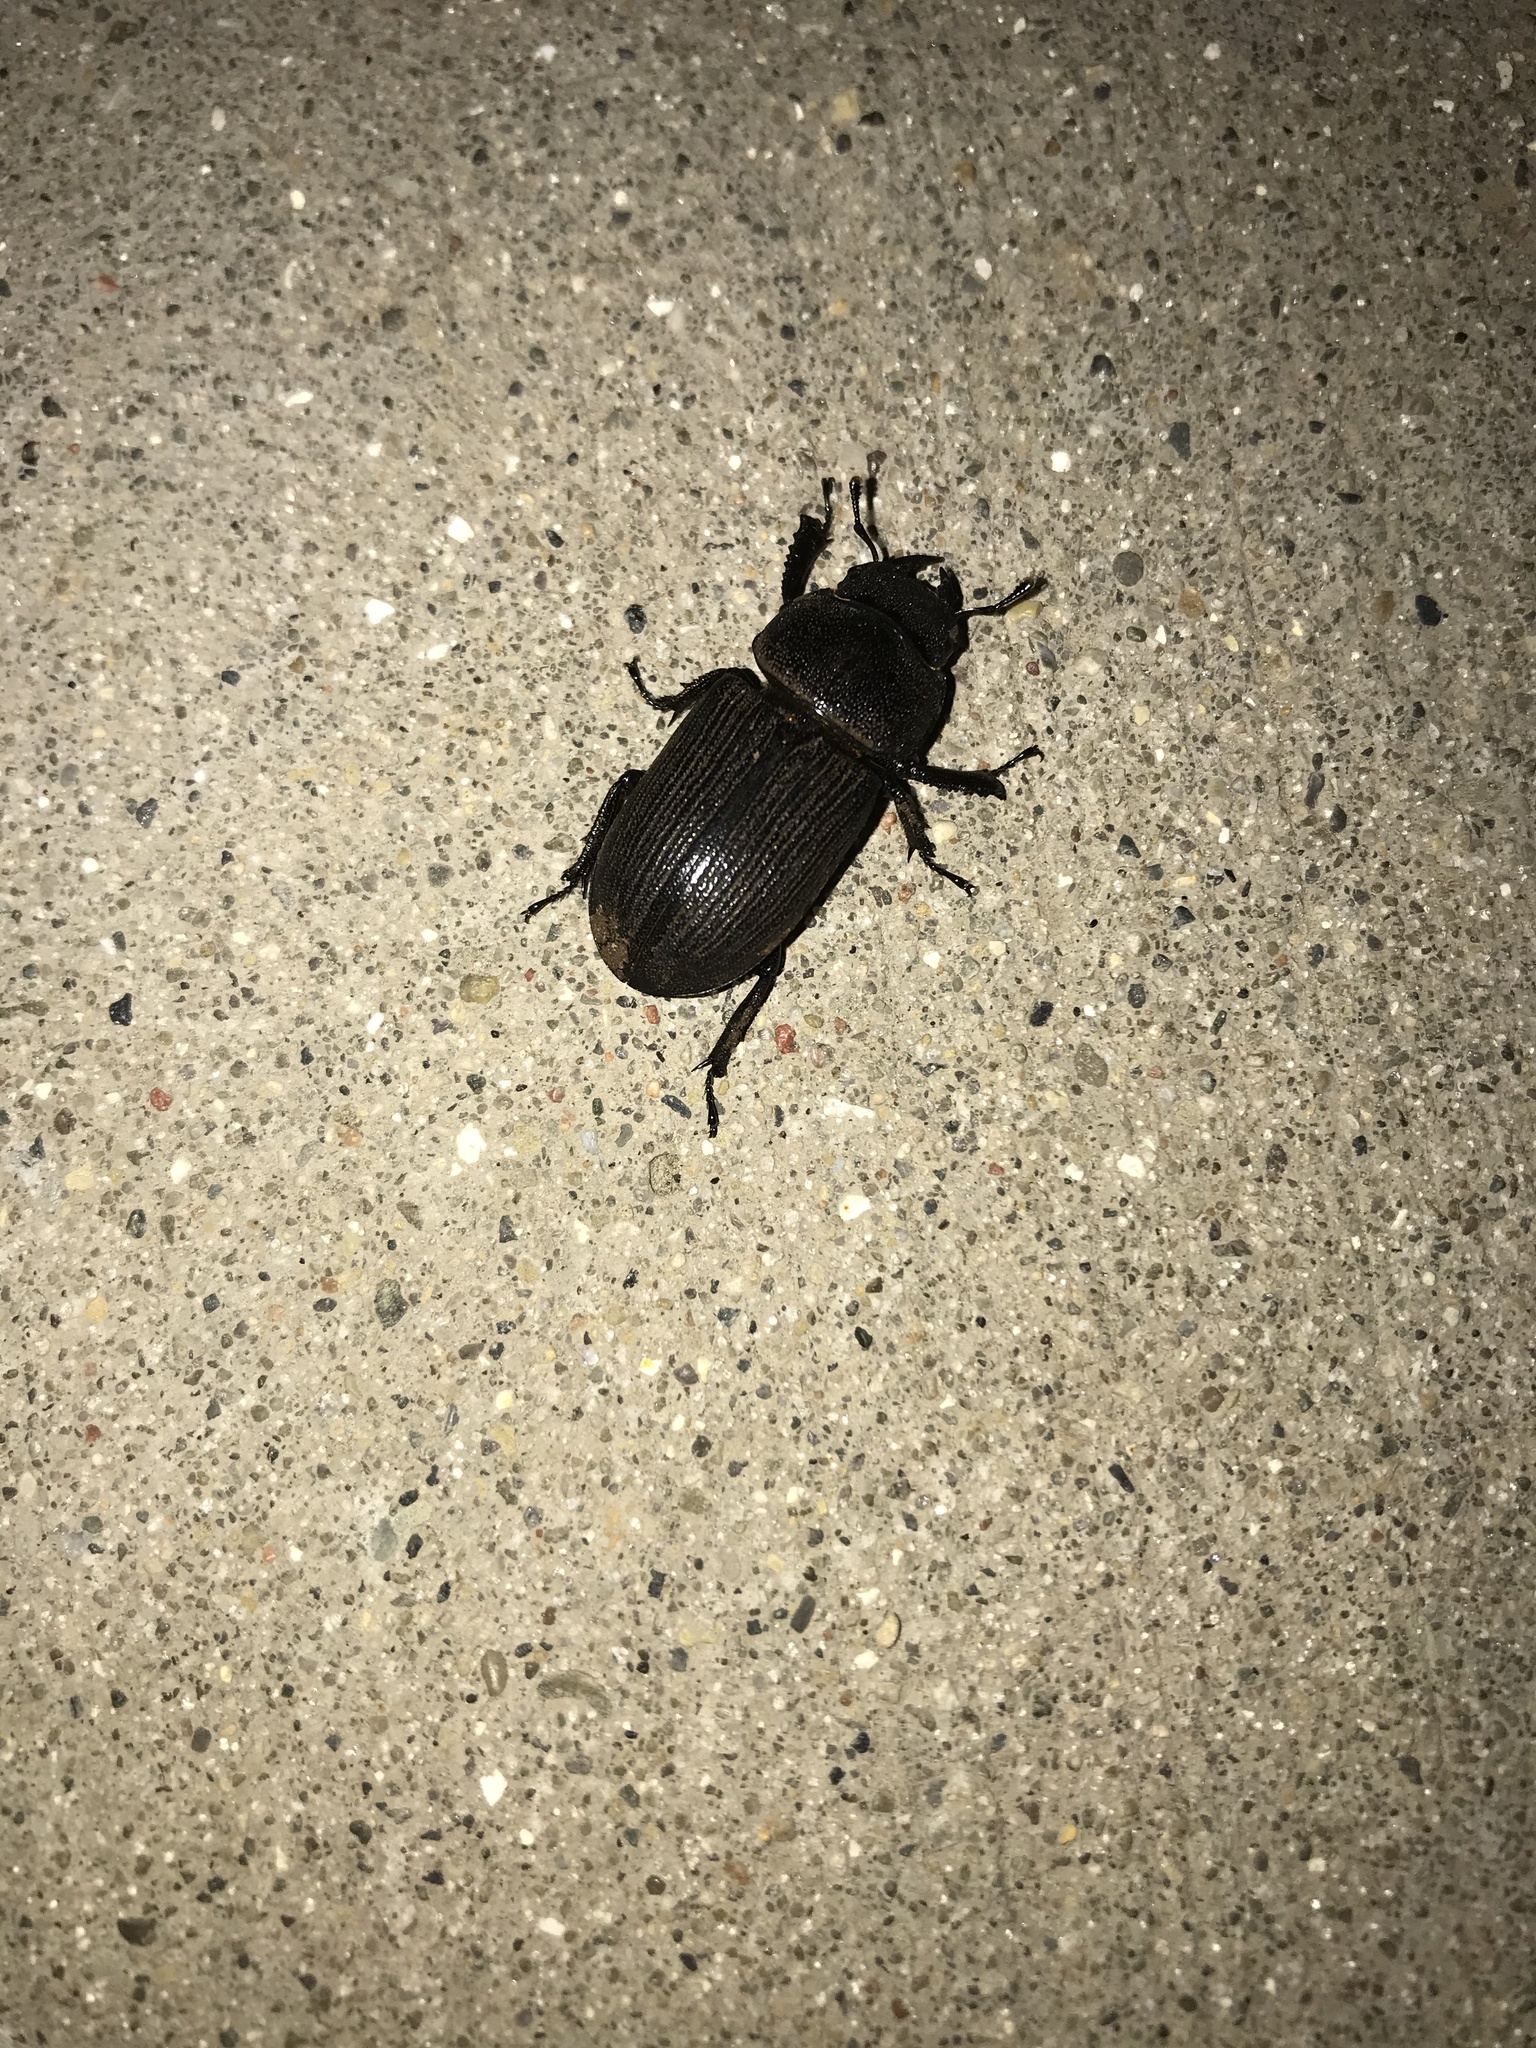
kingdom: Animalia
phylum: Arthropoda
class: Insecta
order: Coleoptera
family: Lucanidae
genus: Dorcus
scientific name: Dorcus parallelus
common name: Antelope beetle
